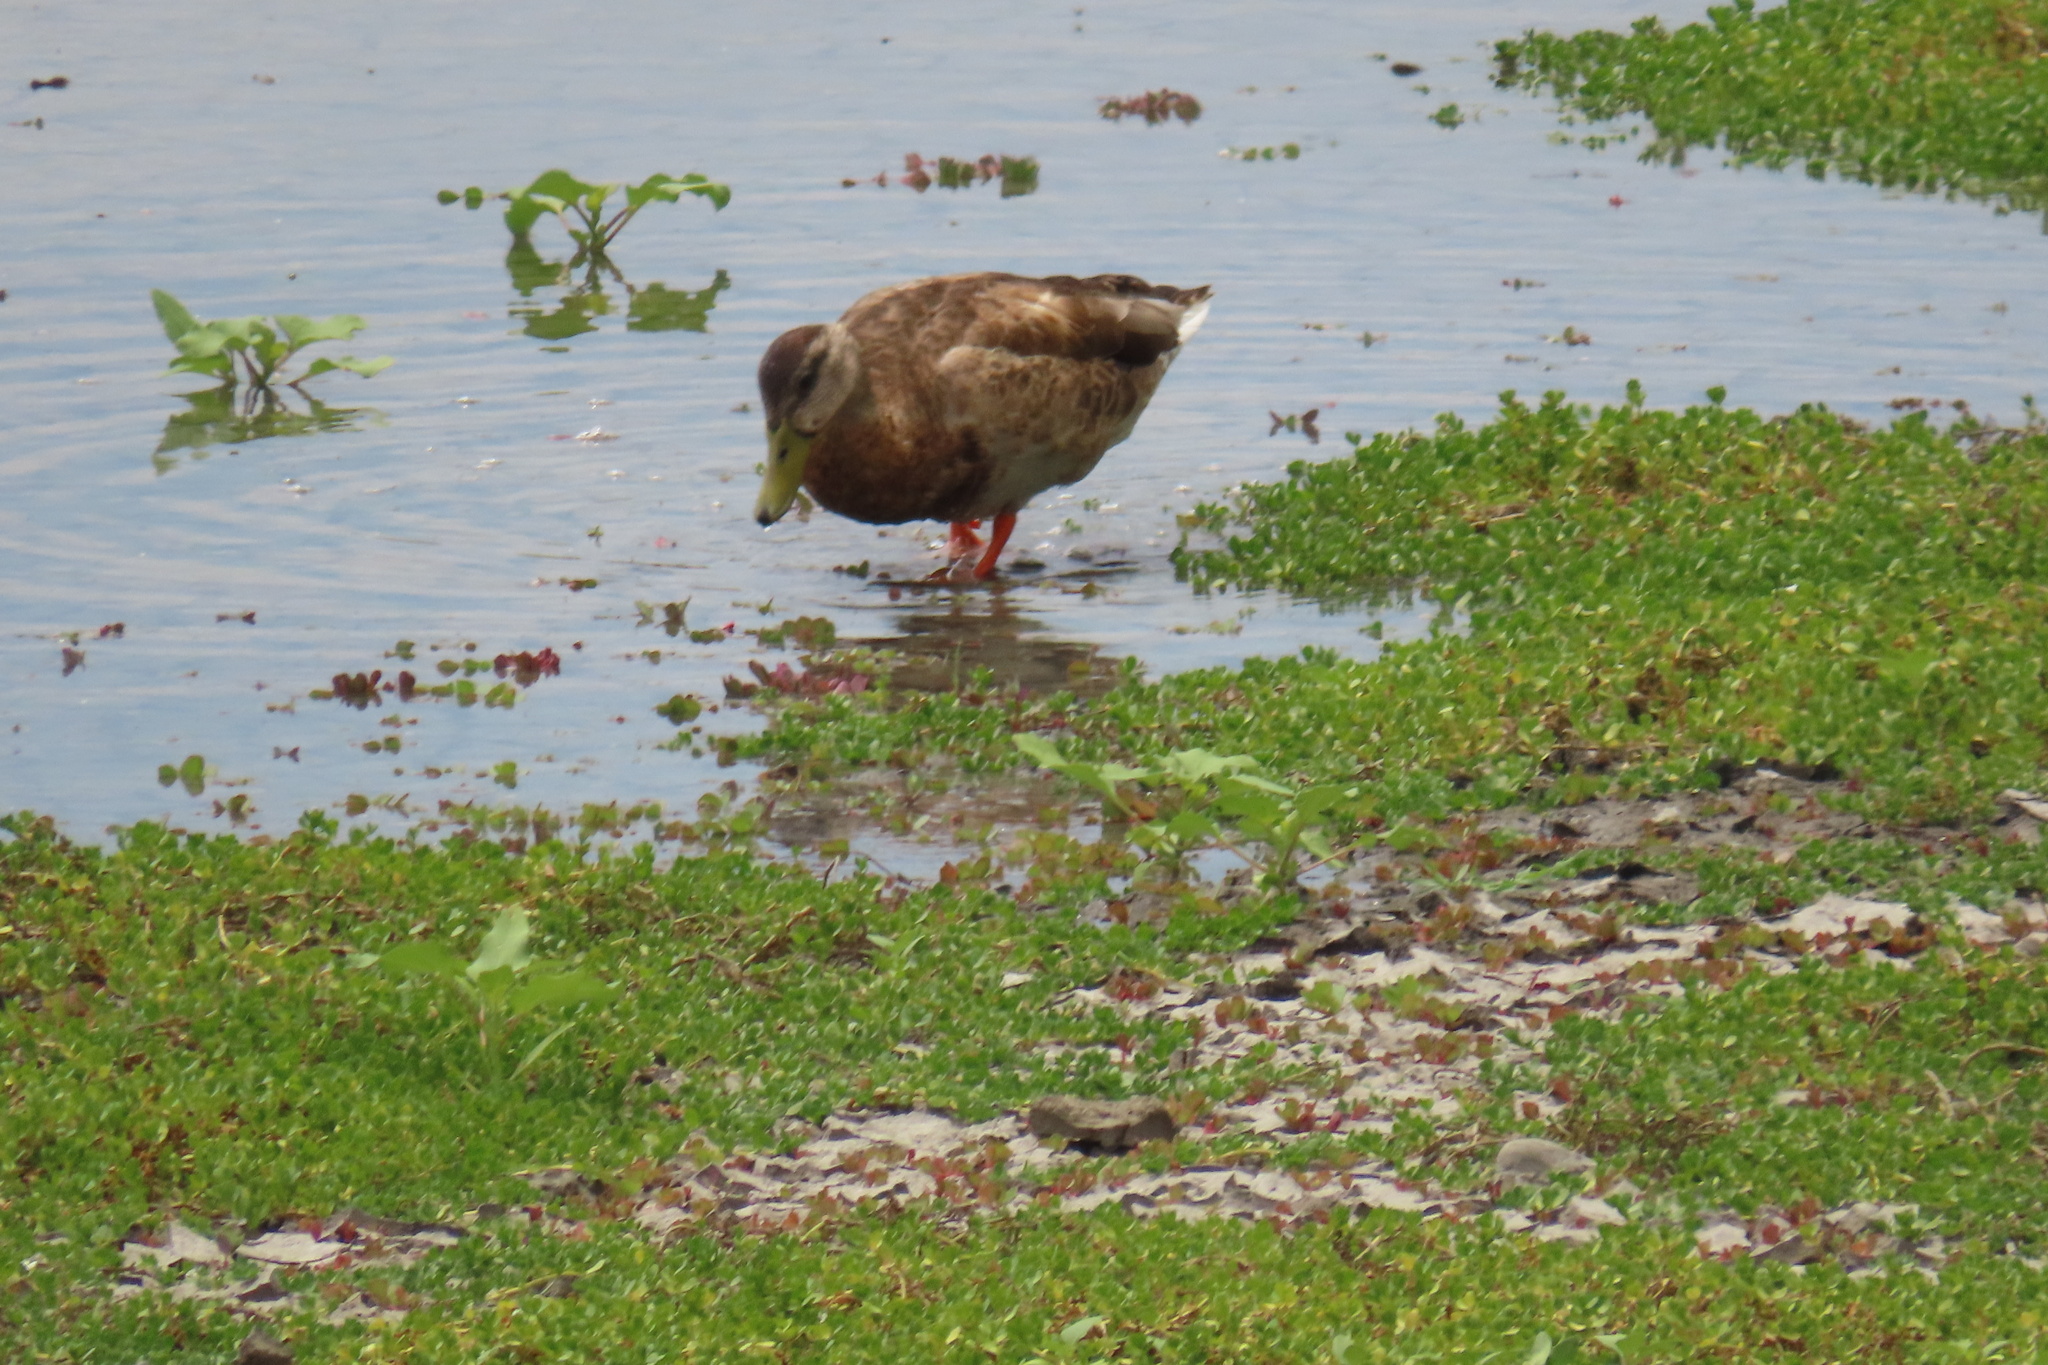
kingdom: Animalia
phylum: Chordata
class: Aves
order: Anseriformes
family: Anatidae
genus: Anas
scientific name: Anas platyrhynchos
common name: Mallard
